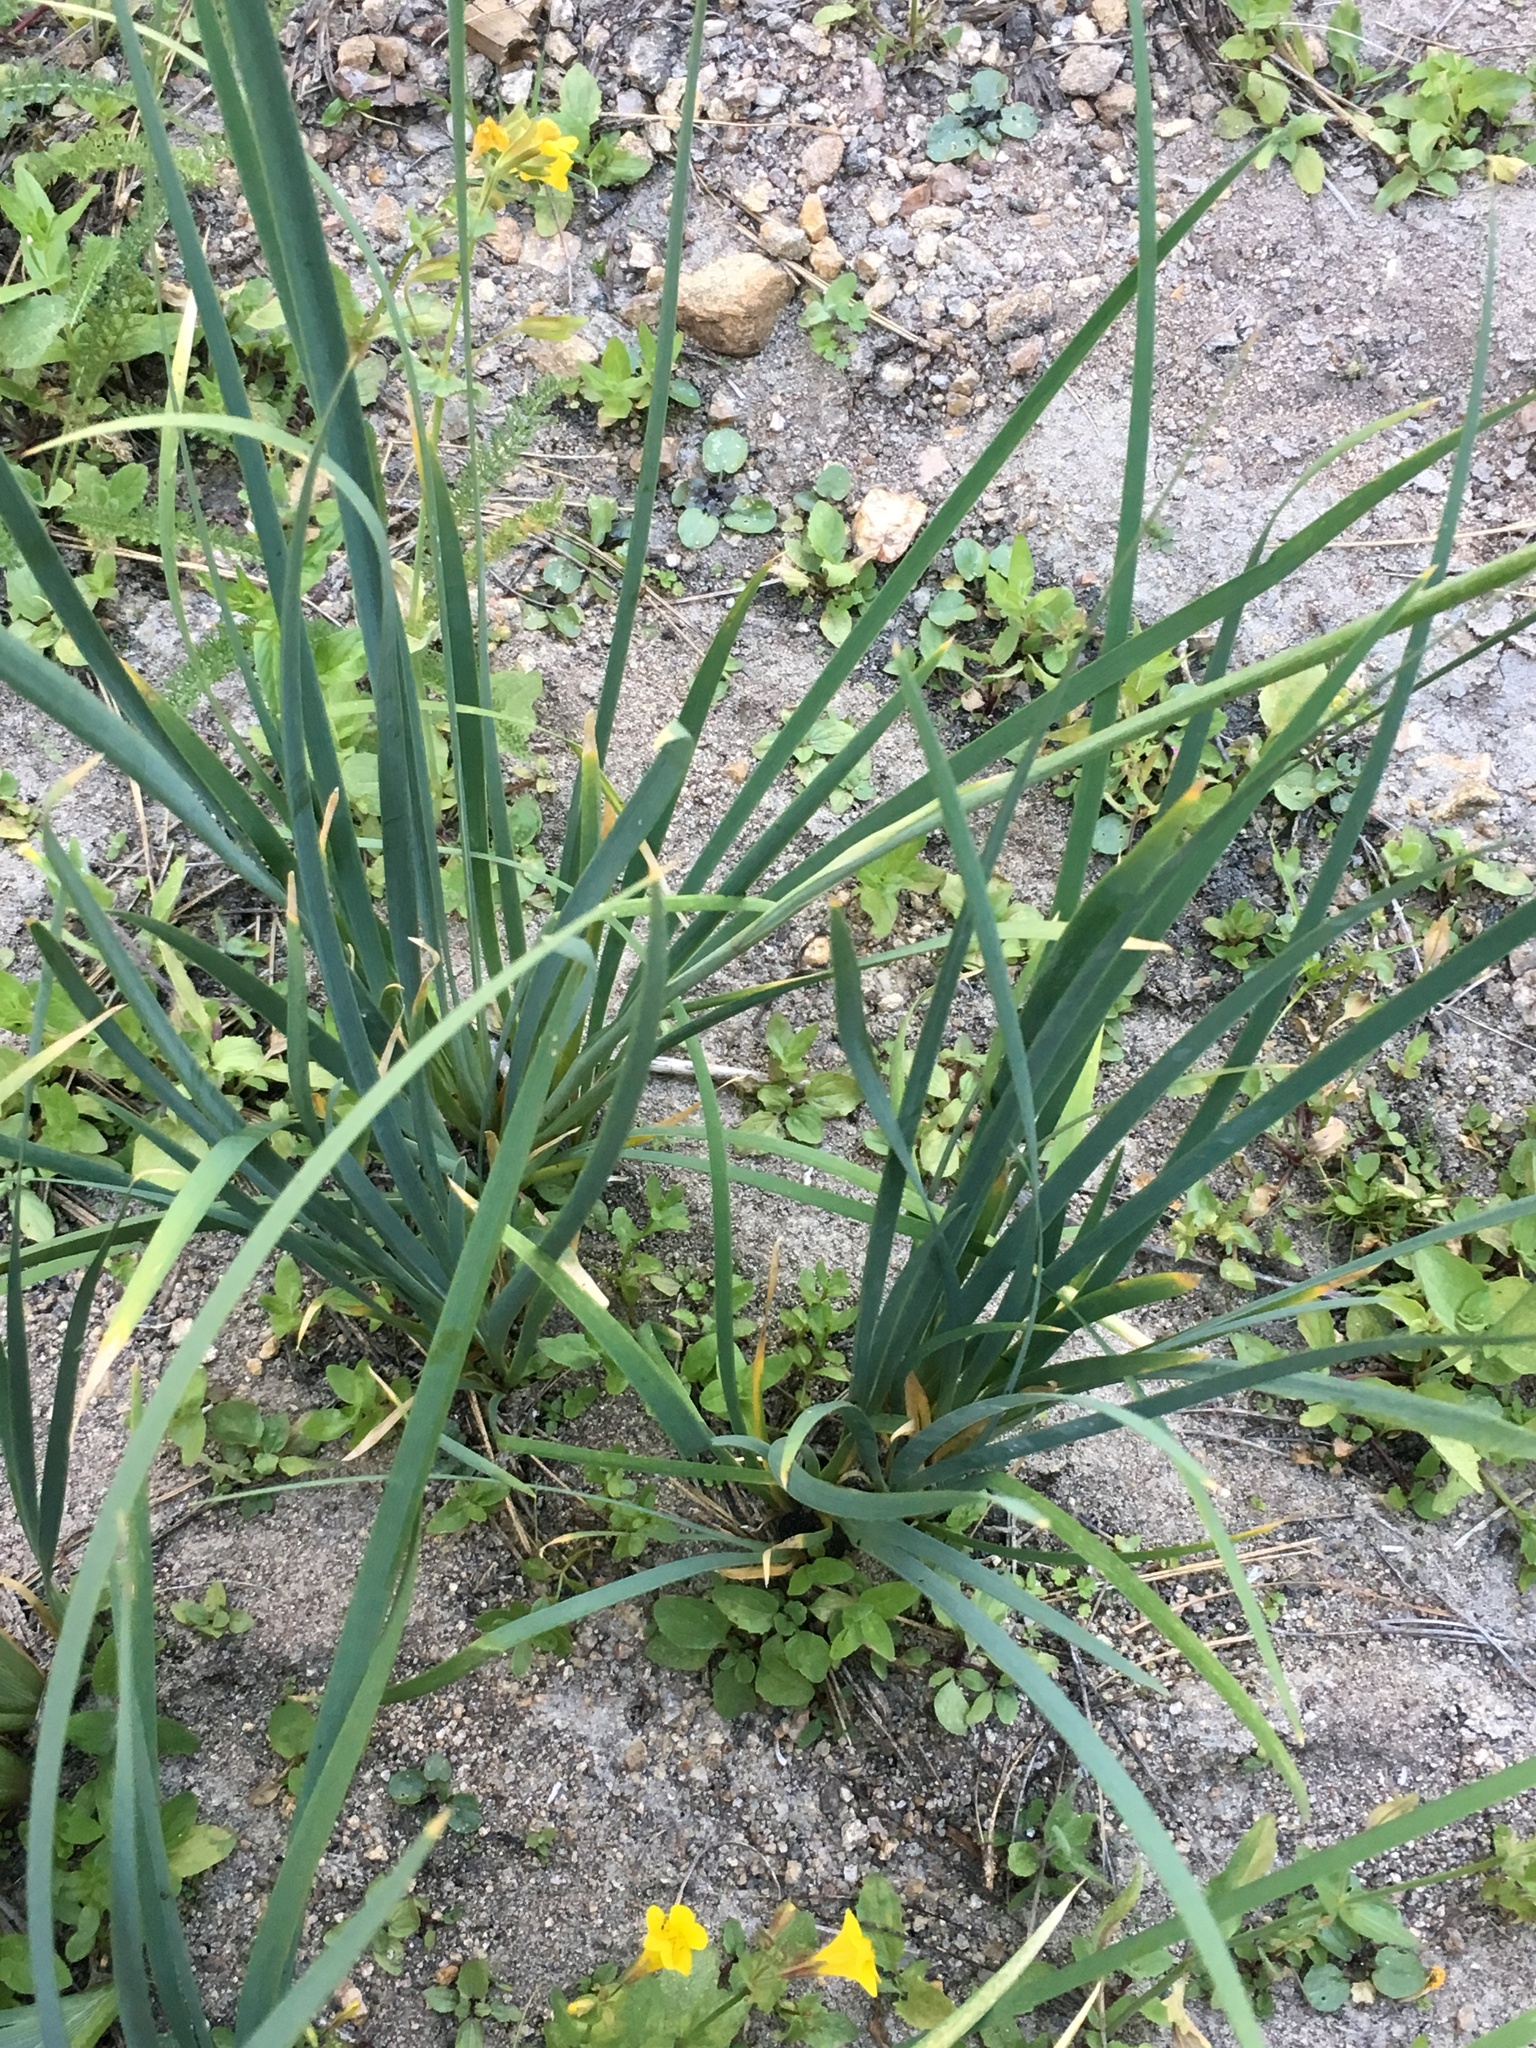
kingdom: Plantae
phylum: Tracheophyta
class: Liliopsida
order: Asparagales
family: Iridaceae
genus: Iris
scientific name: Iris missouriensis
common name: Rocky mountain iris
